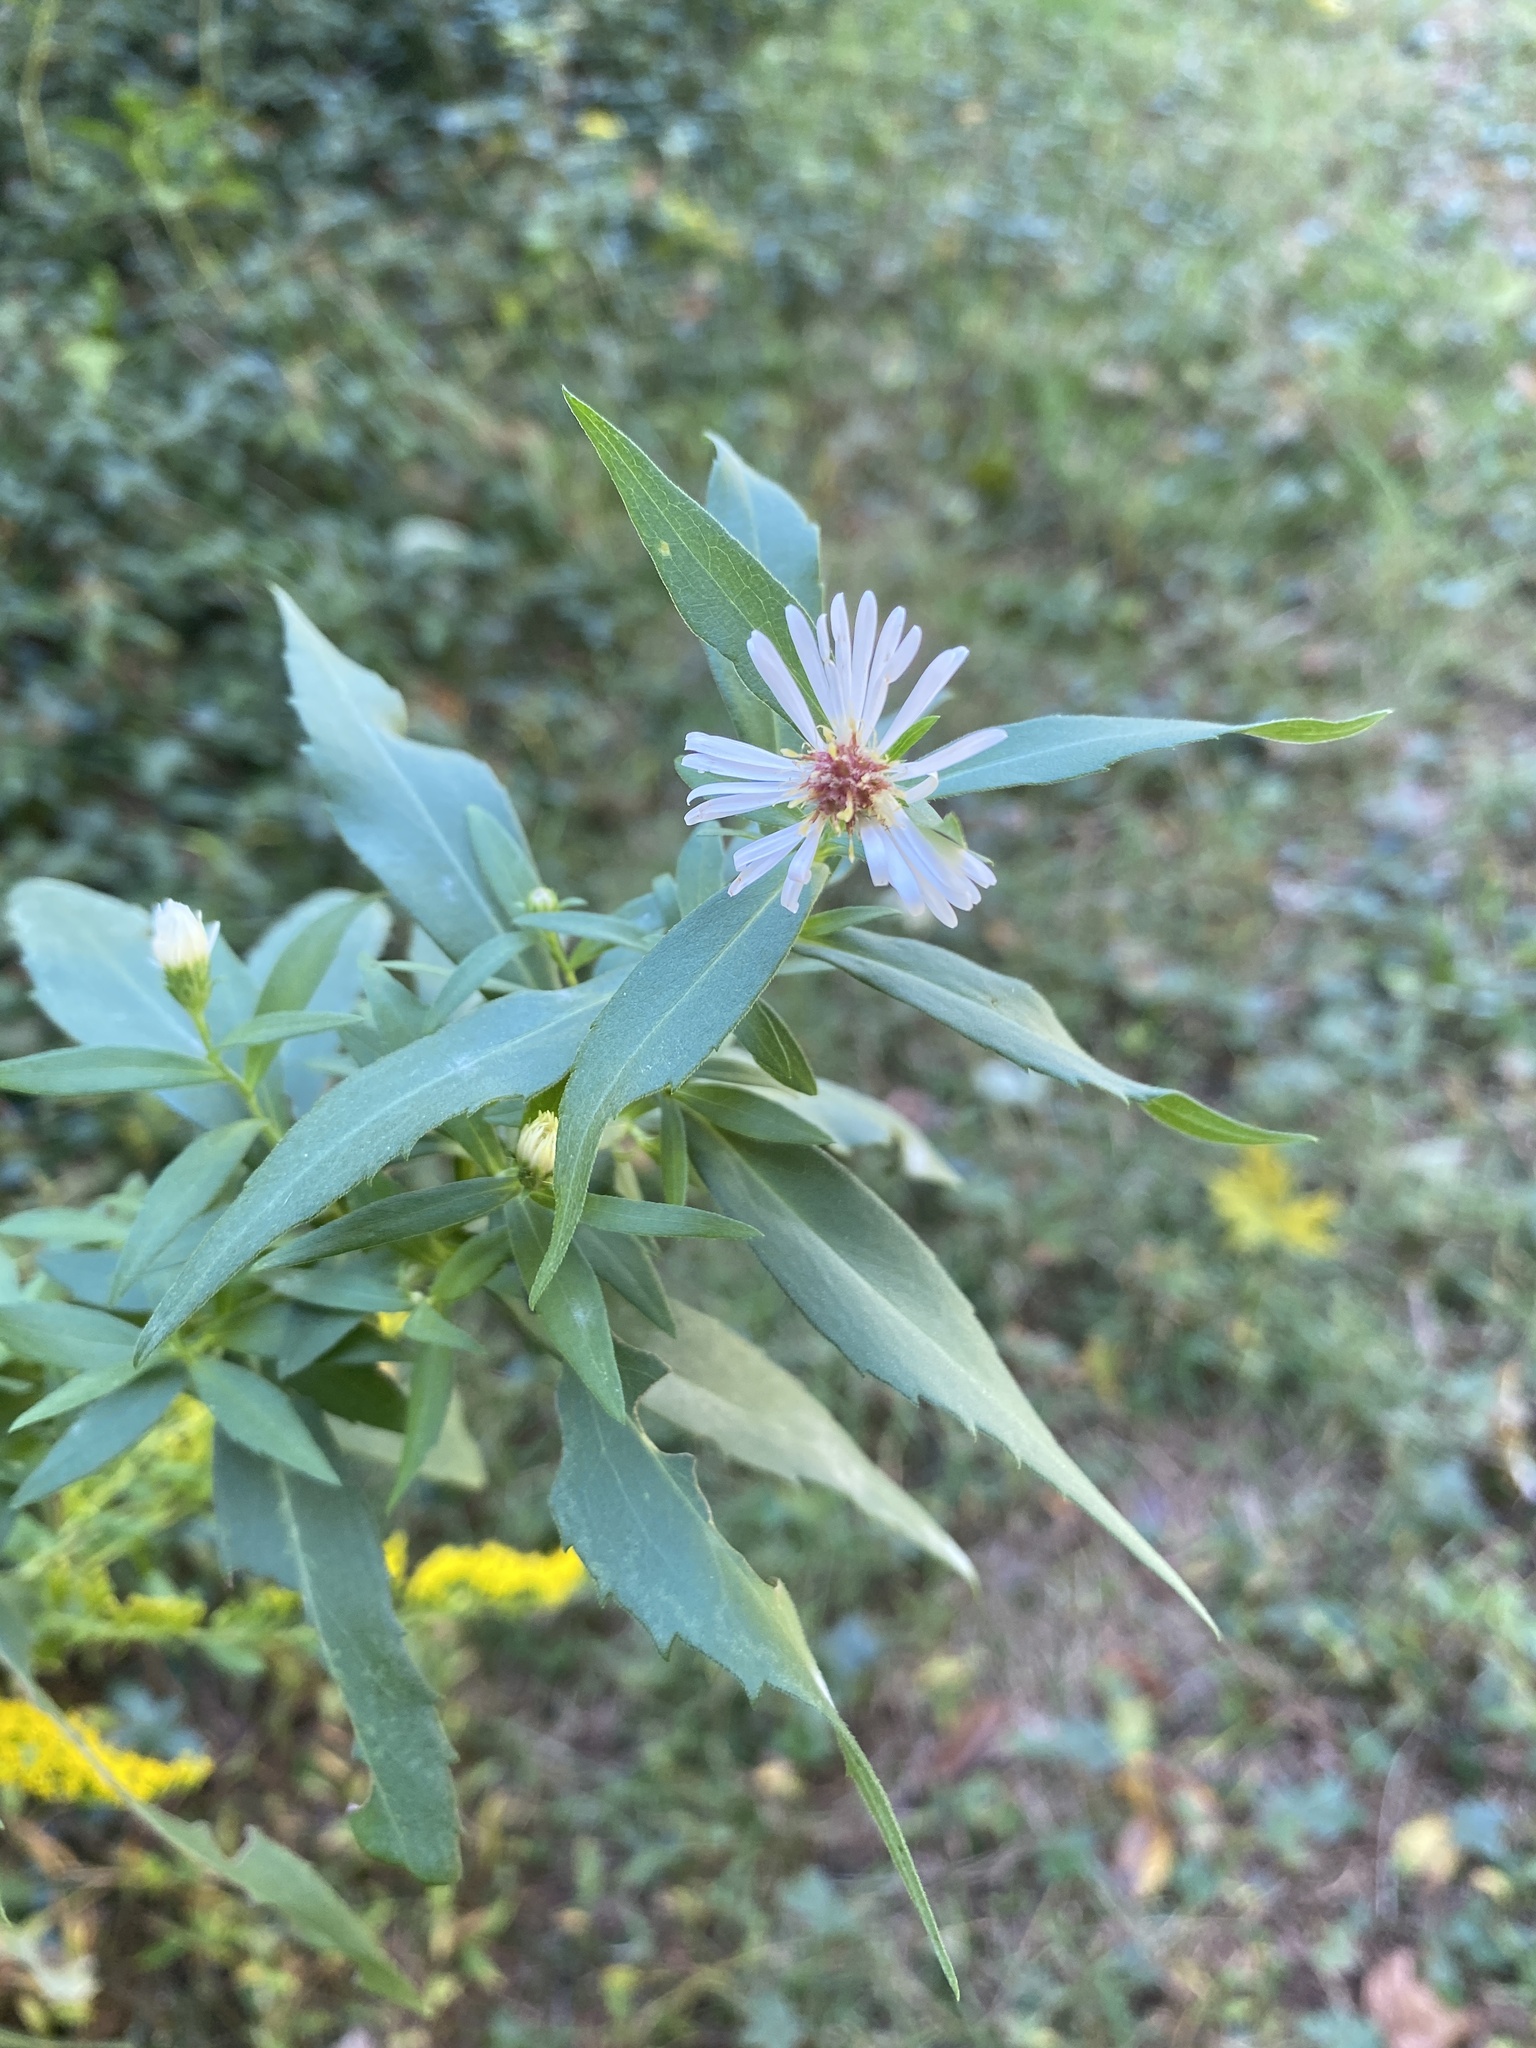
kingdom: Plantae
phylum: Tracheophyta
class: Magnoliopsida
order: Asterales
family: Asteraceae
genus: Symphyotrichum
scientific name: Symphyotrichum lanceolatum
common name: Panicled aster
